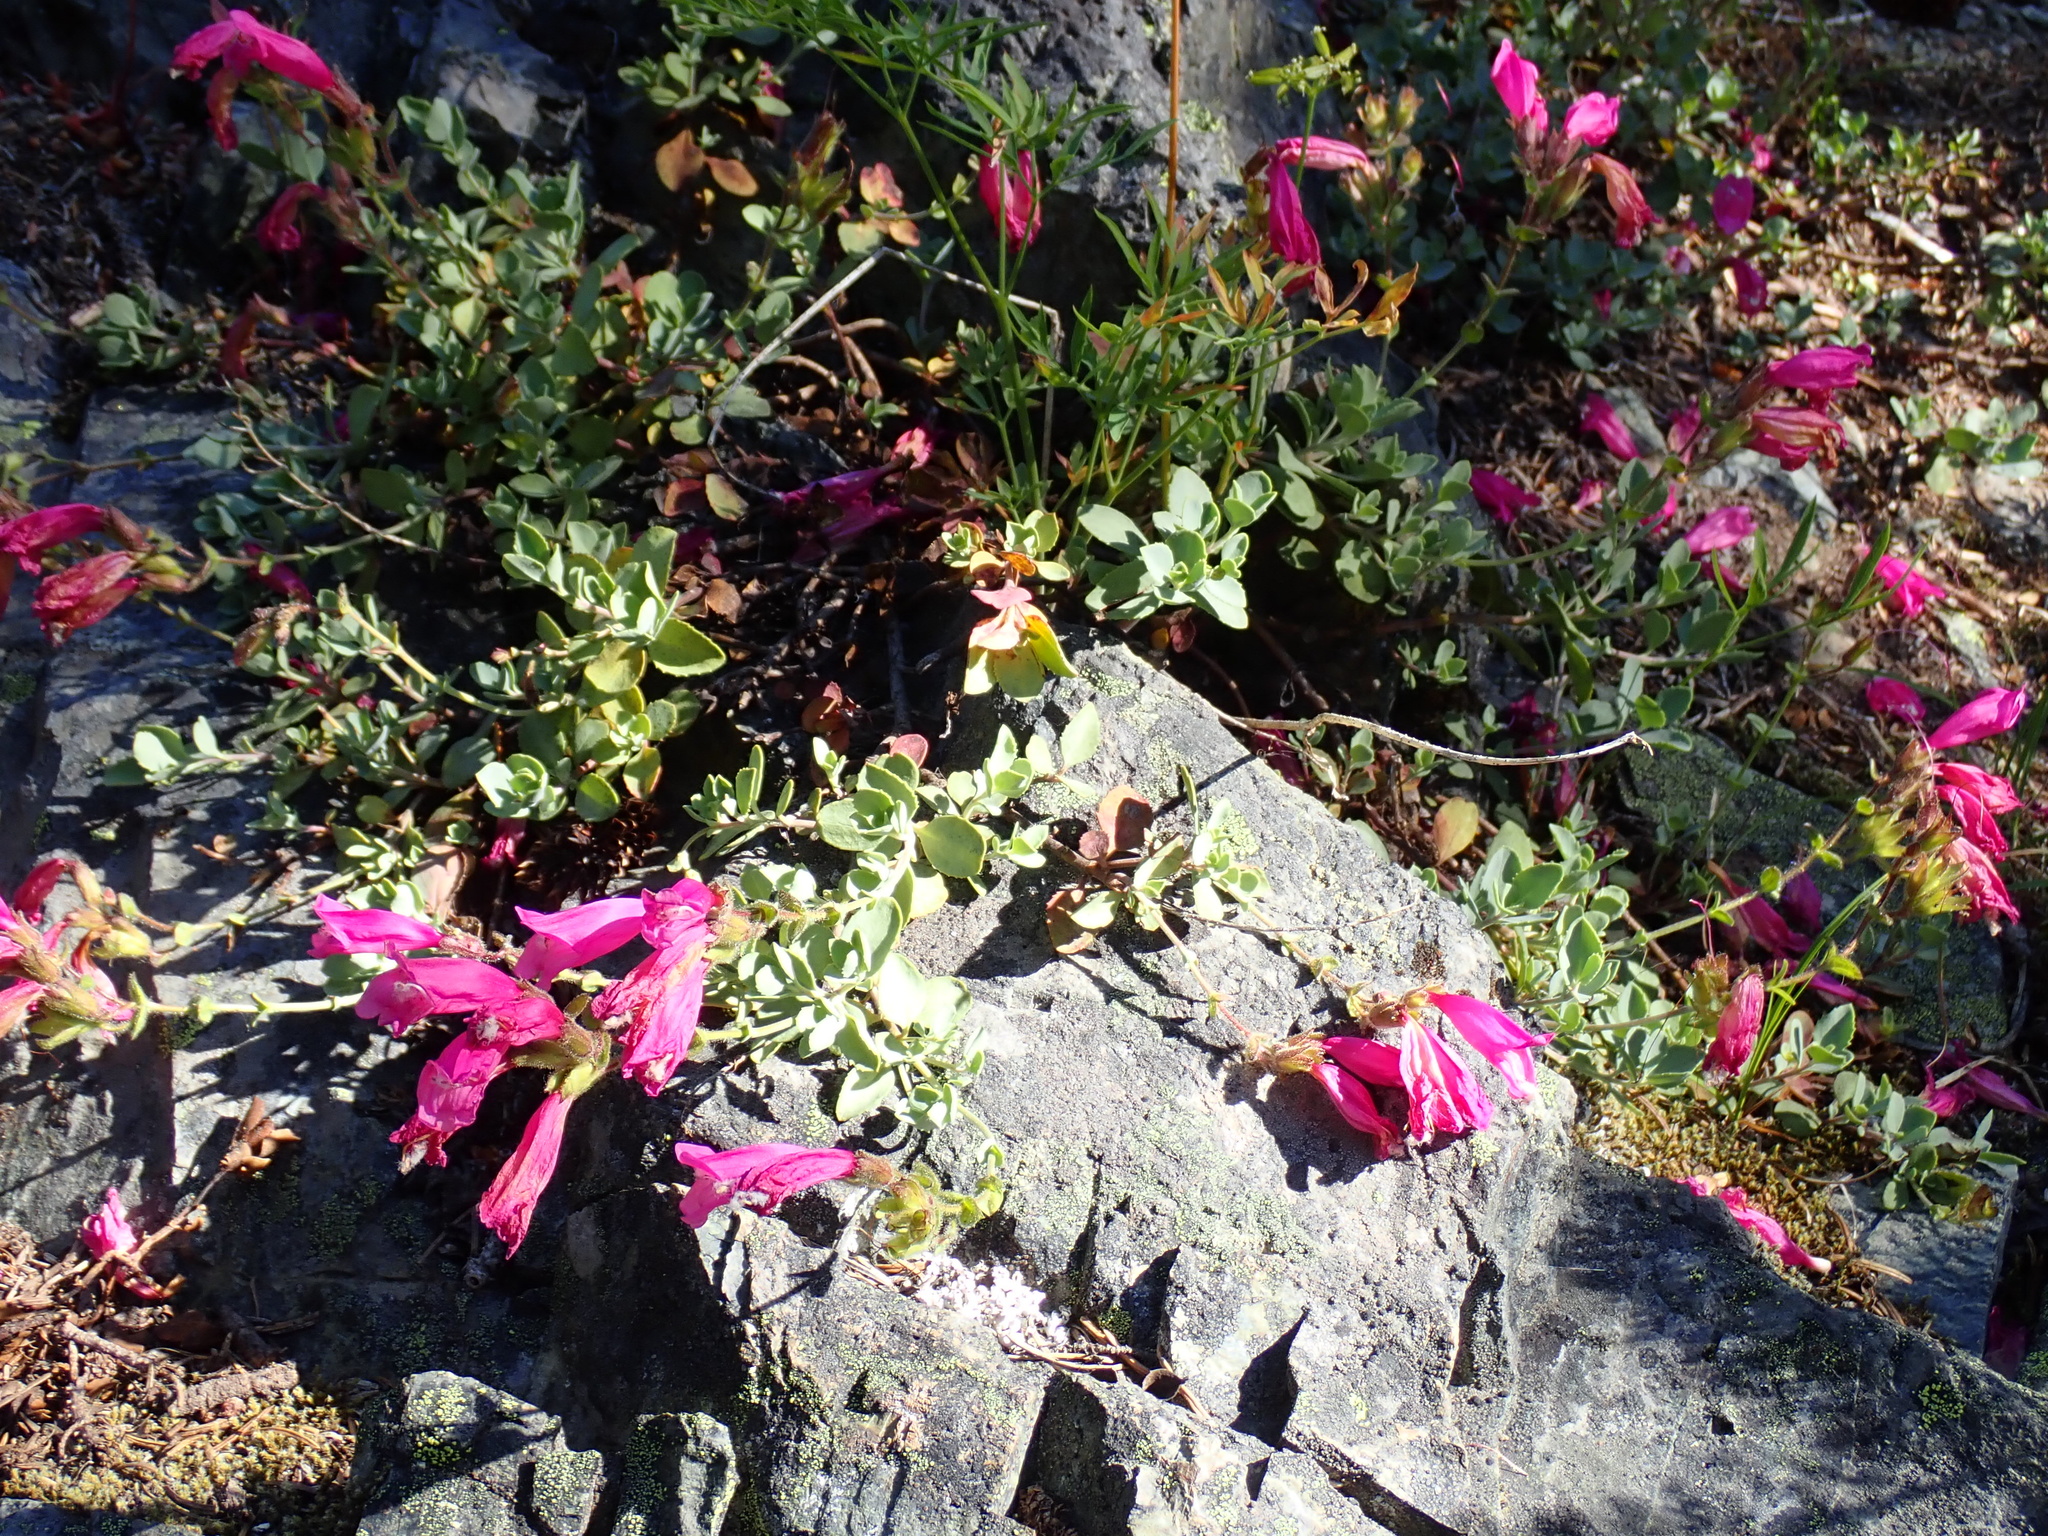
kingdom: Plantae
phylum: Tracheophyta
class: Magnoliopsida
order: Lamiales
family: Plantaginaceae
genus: Penstemon
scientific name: Penstemon rupicola
